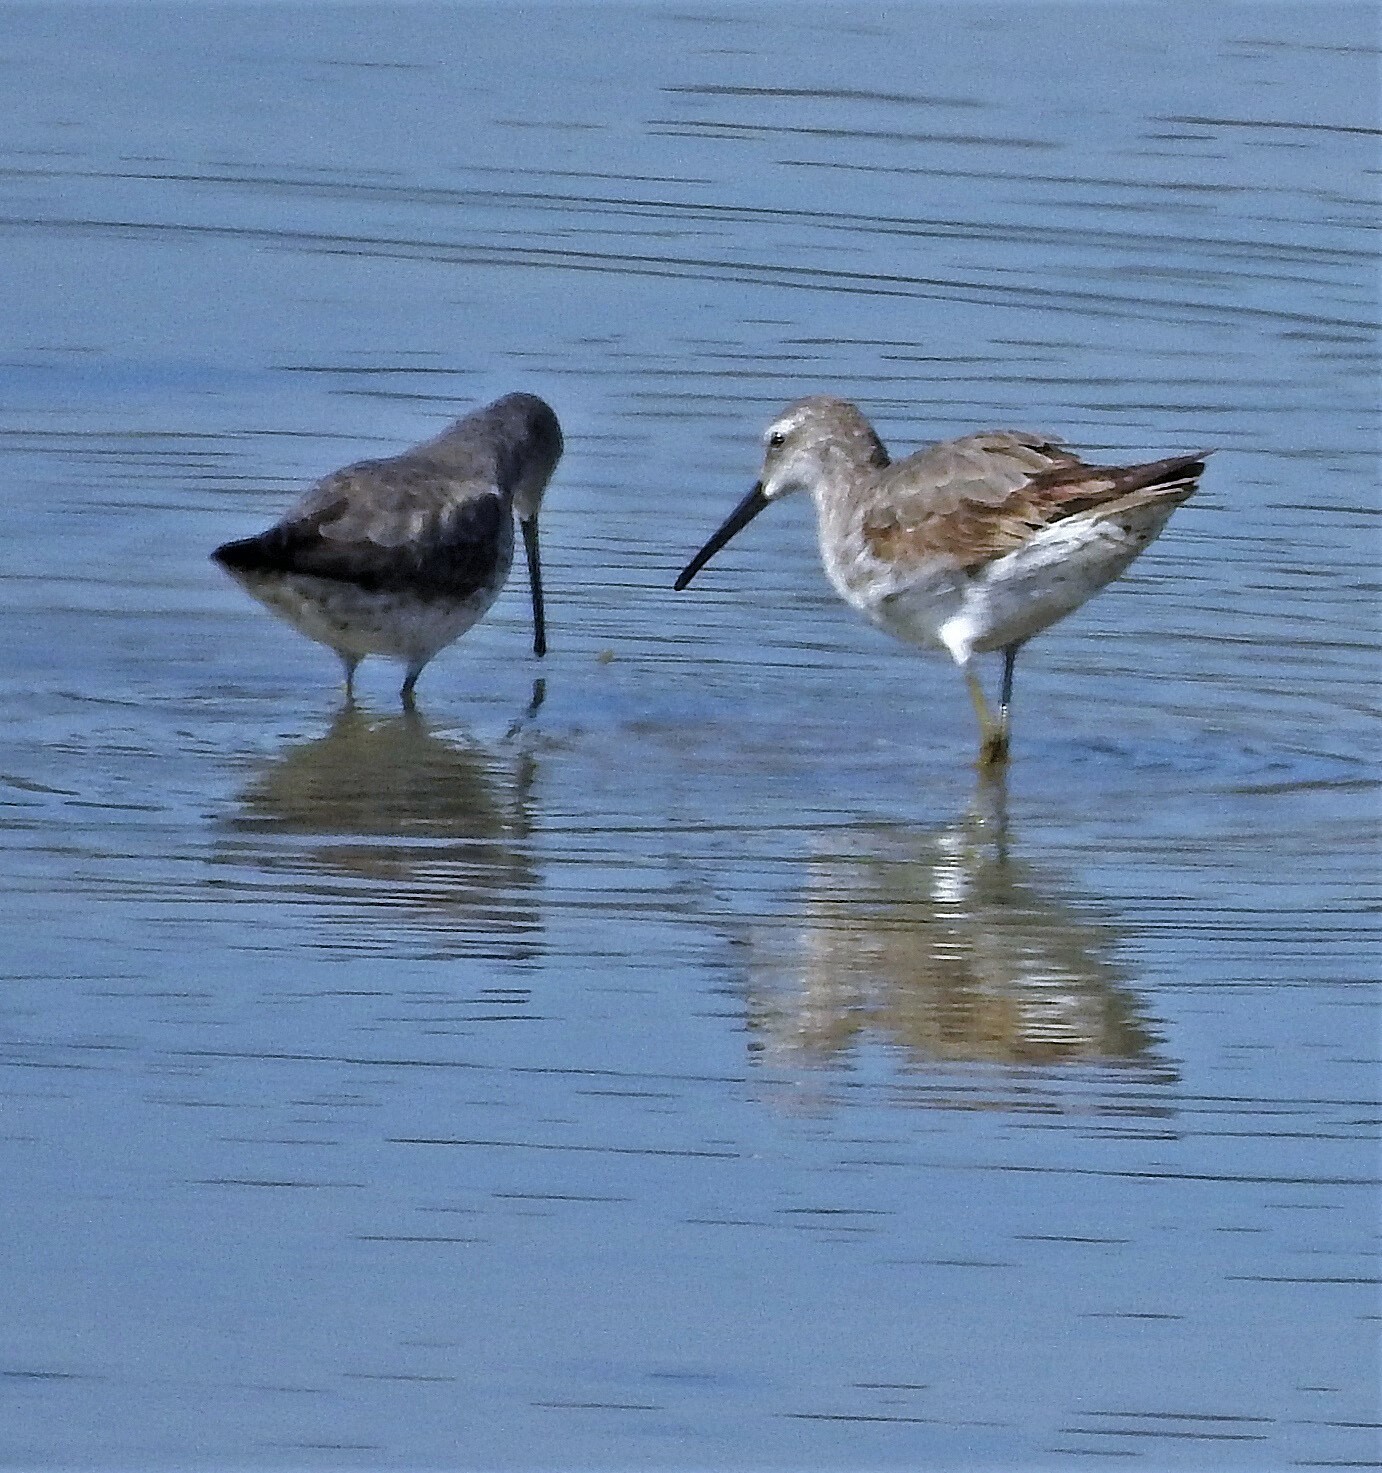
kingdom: Animalia
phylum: Chordata
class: Aves
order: Charadriiformes
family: Scolopacidae
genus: Calidris
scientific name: Calidris himantopus
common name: Stilt sandpiper
